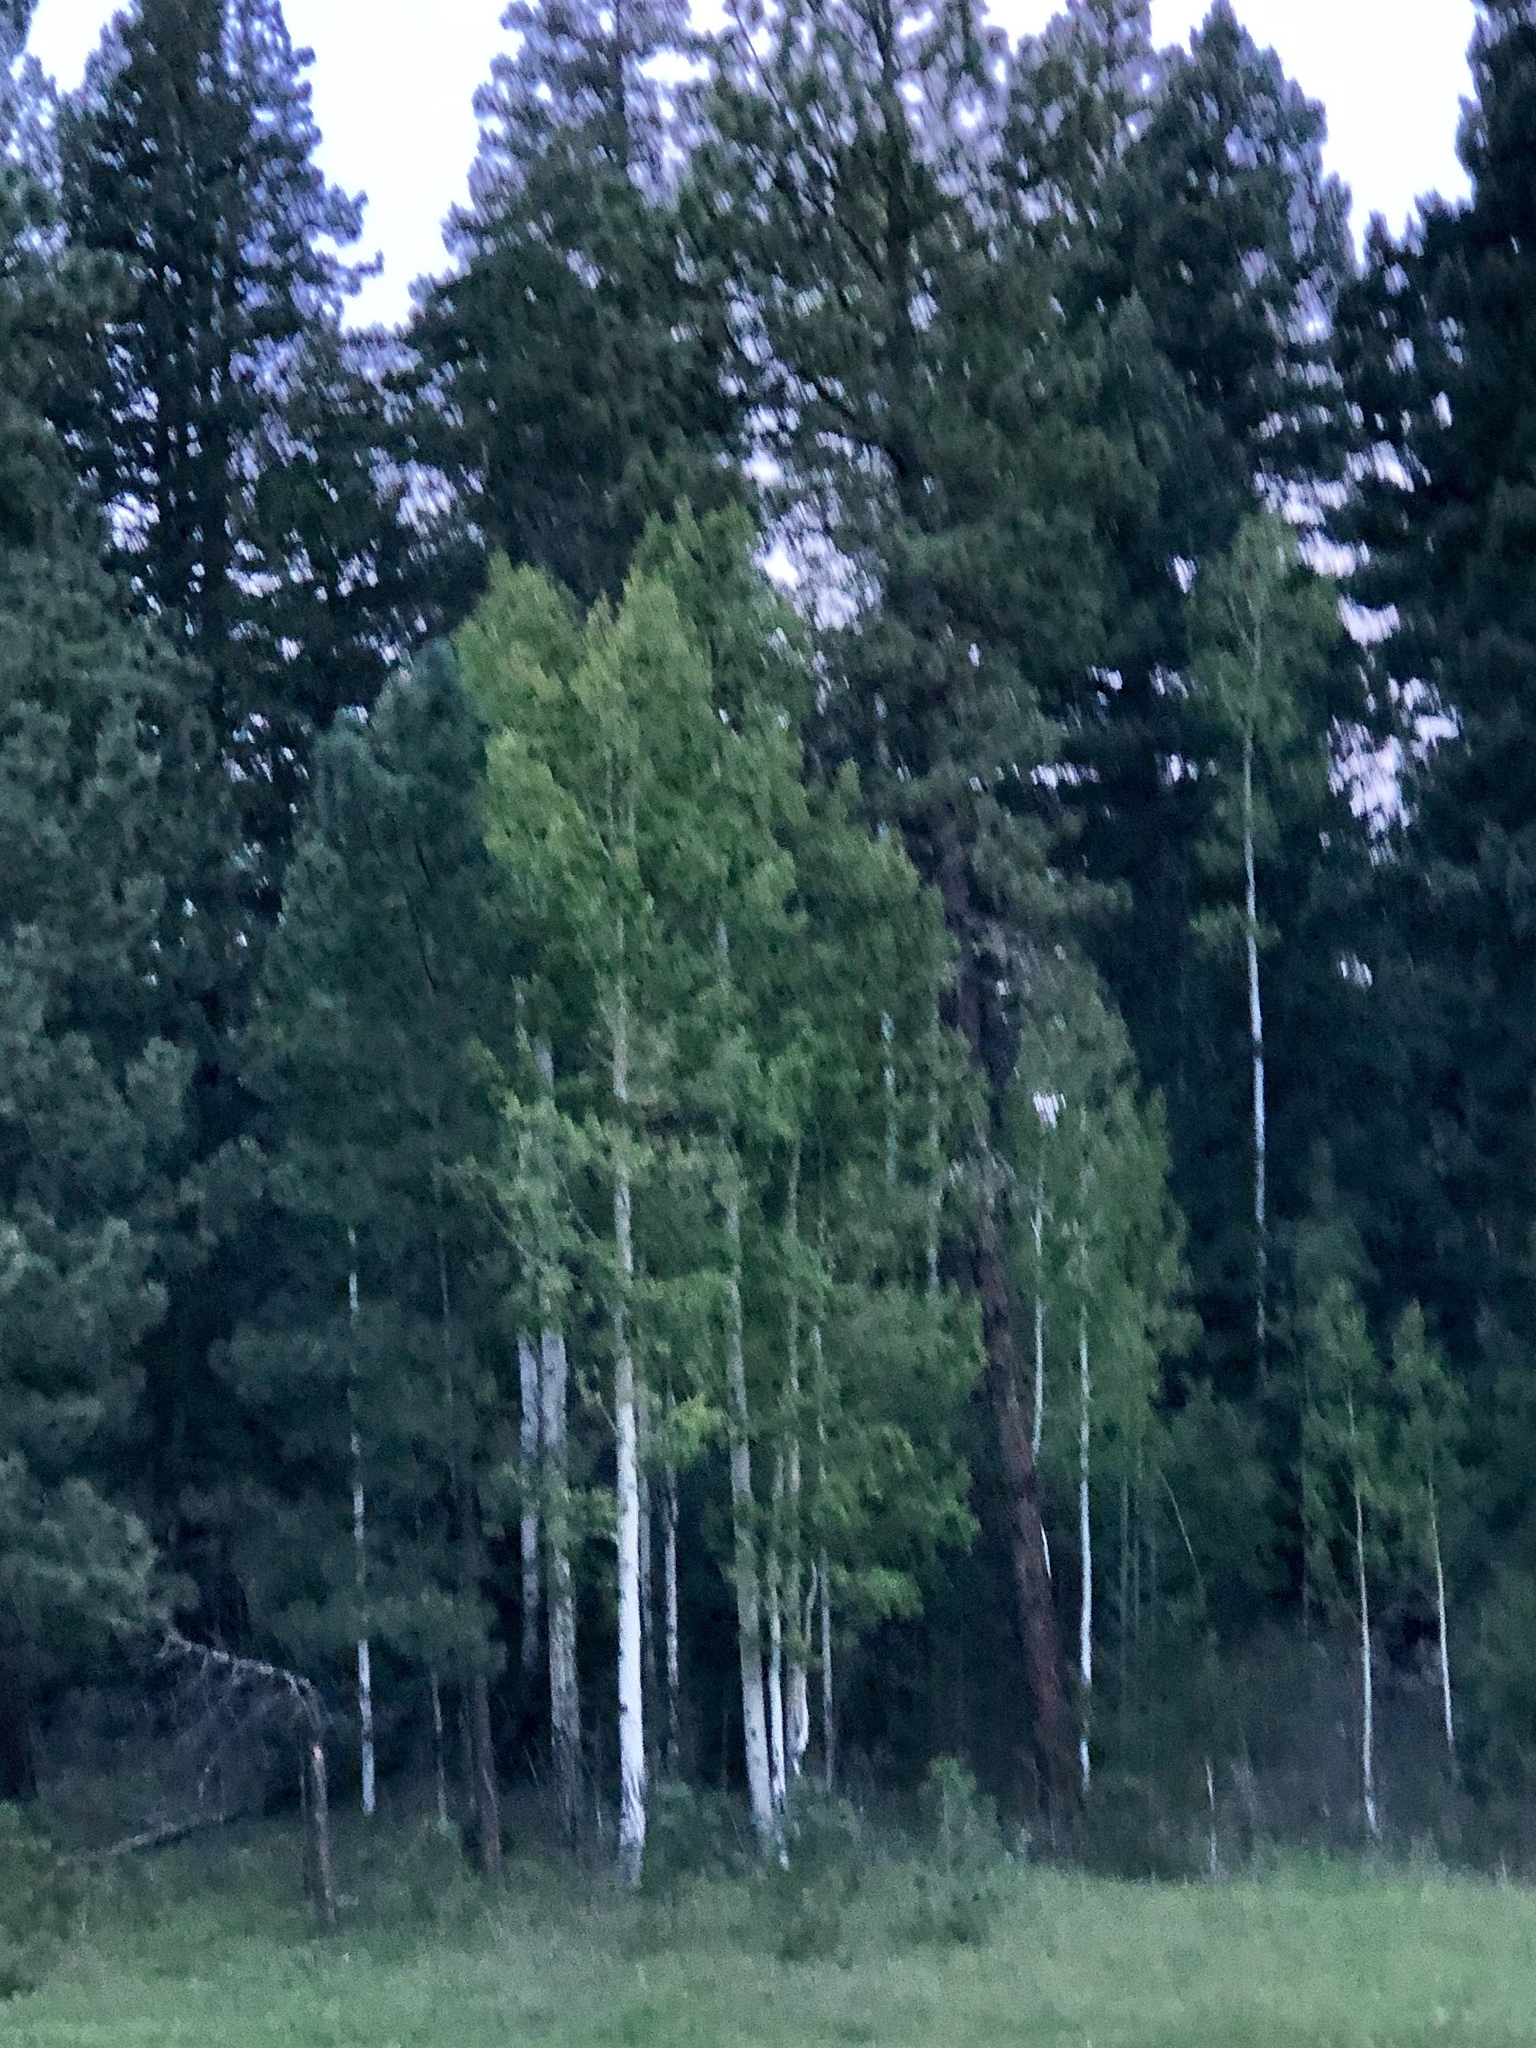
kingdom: Plantae
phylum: Tracheophyta
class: Magnoliopsida
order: Malpighiales
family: Salicaceae
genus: Populus
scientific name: Populus tremuloides
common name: Quaking aspen
